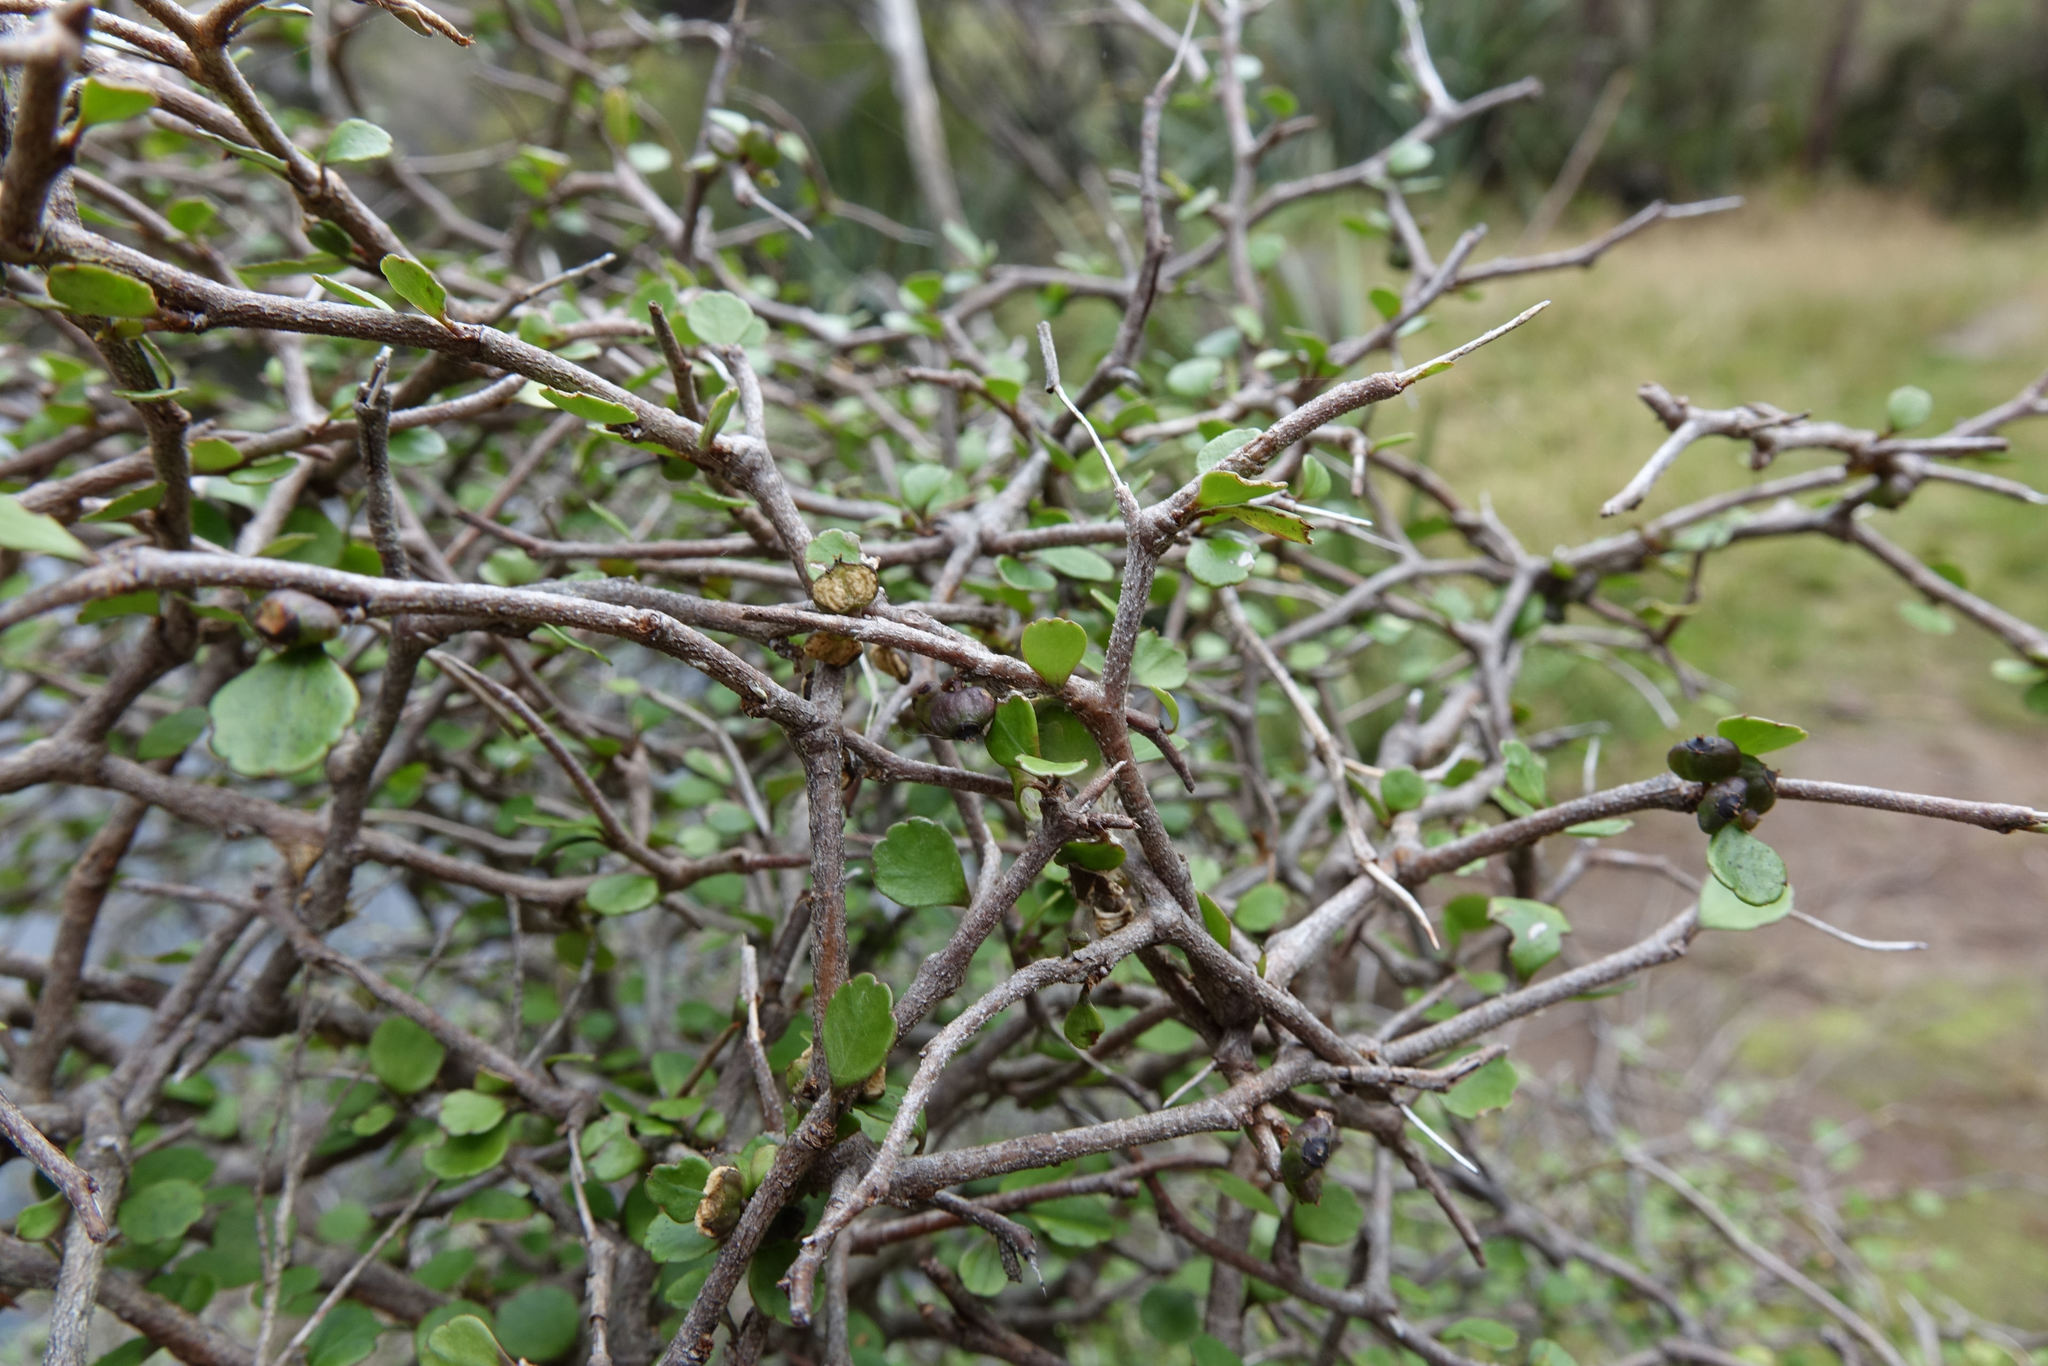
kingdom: Plantae
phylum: Tracheophyta
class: Magnoliopsida
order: Apiales
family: Araliaceae
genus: Raukaua
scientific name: Raukaua anomalus
